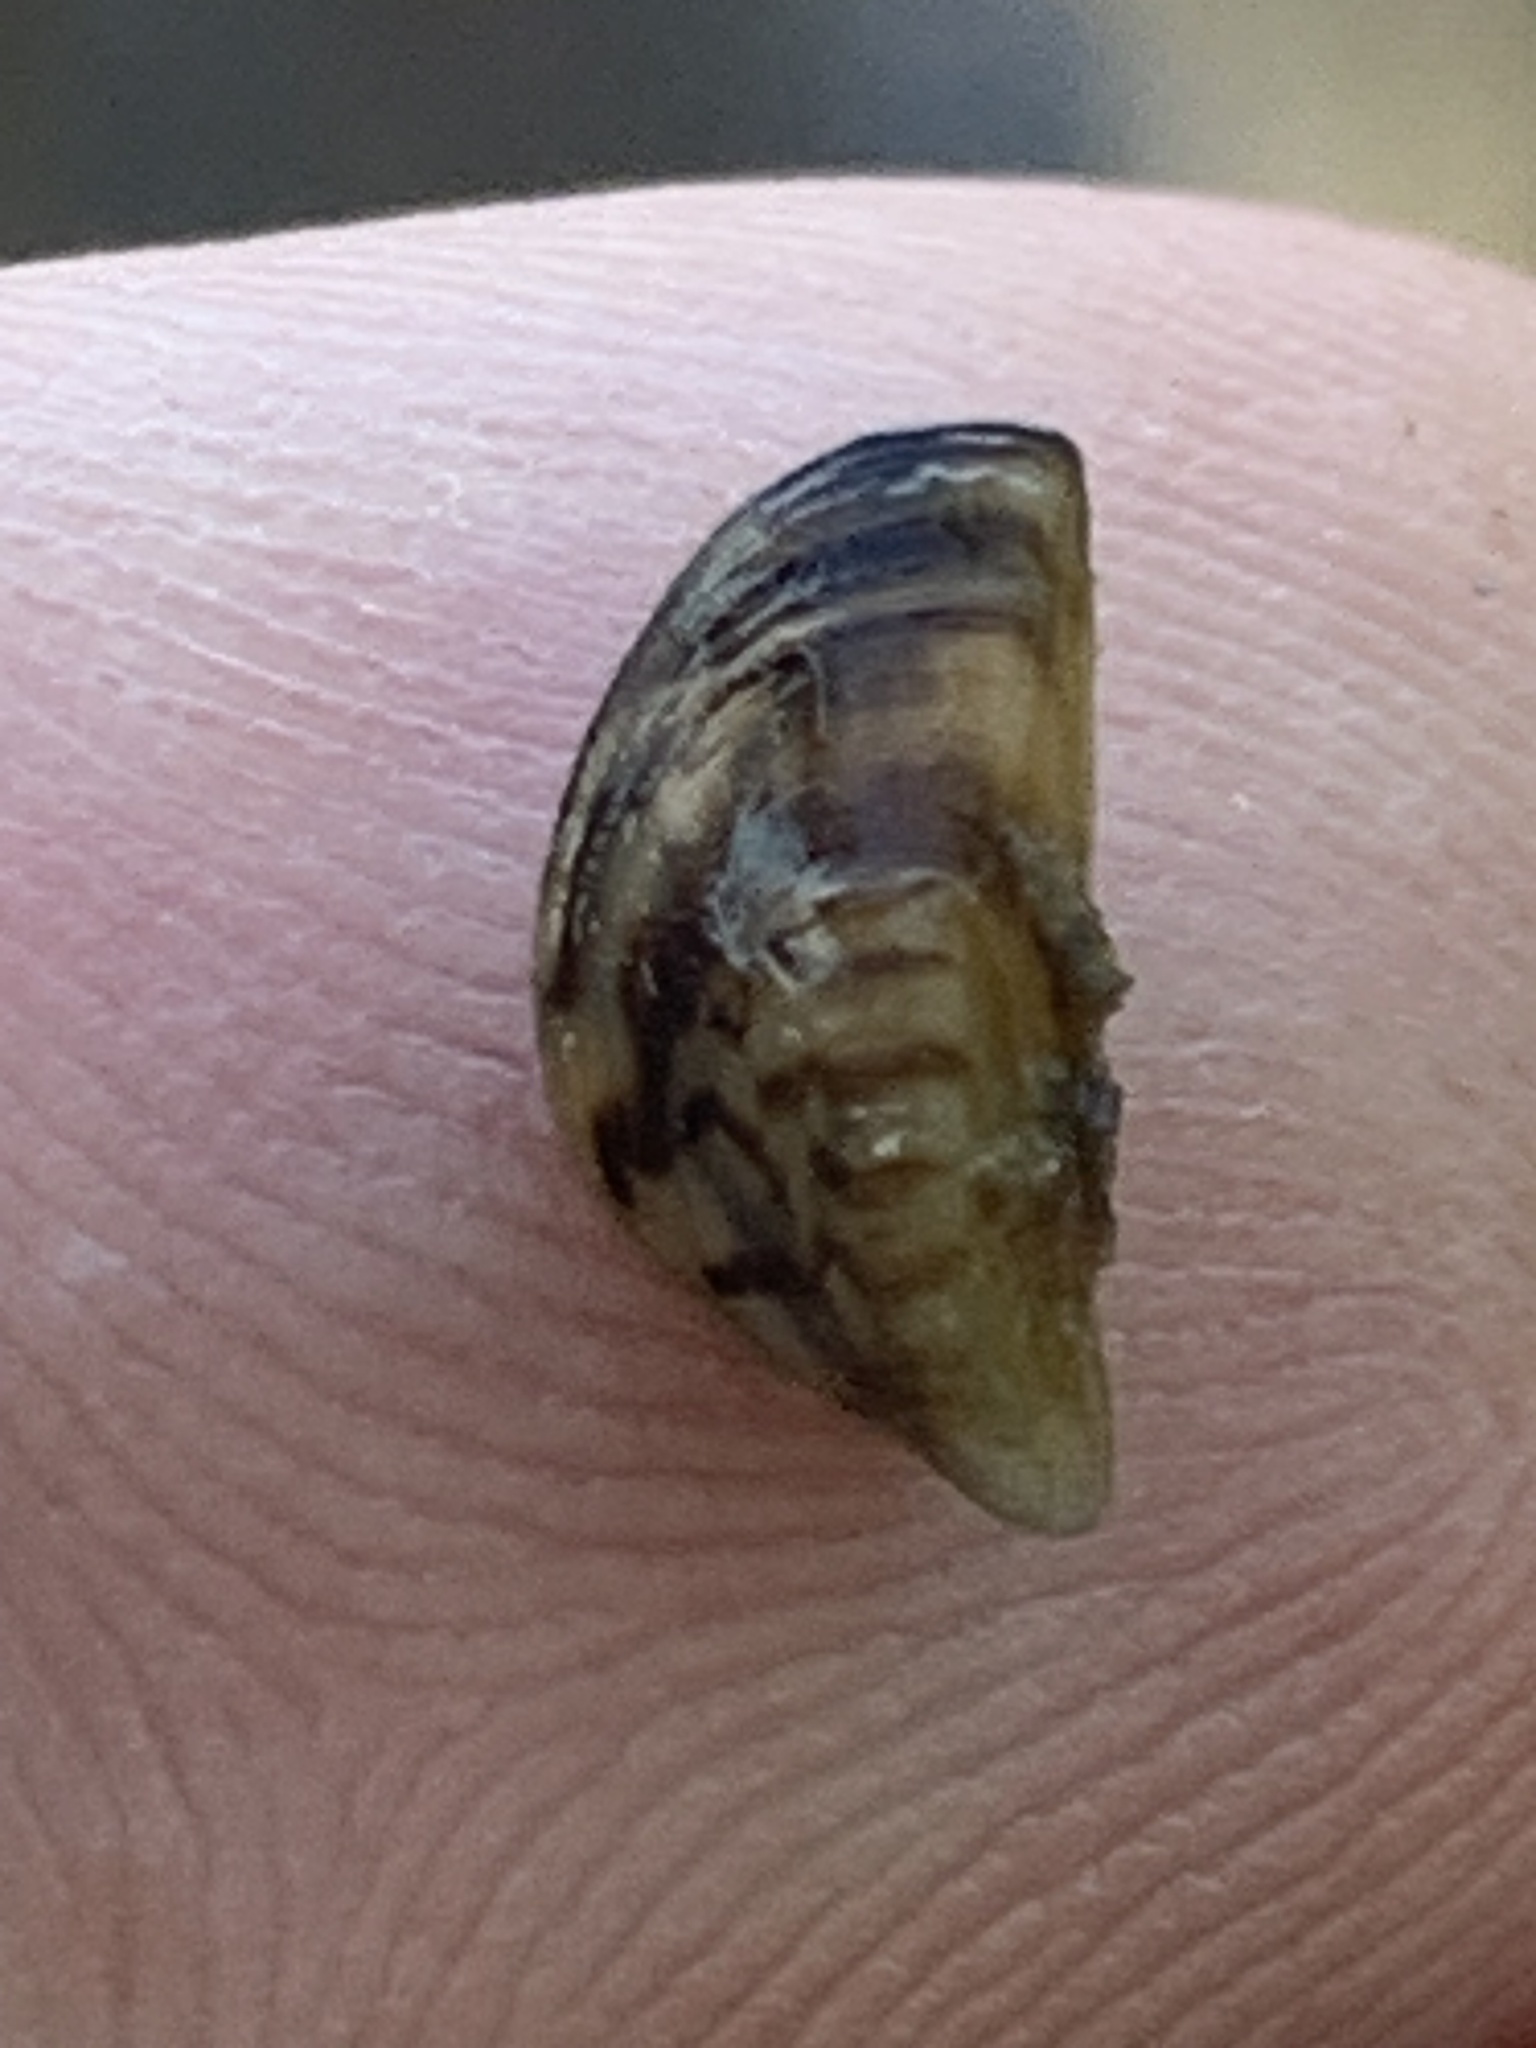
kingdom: Animalia
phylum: Mollusca
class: Bivalvia
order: Myida
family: Dreissenidae
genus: Dreissena
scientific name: Dreissena polymorpha
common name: Zebra mussel
